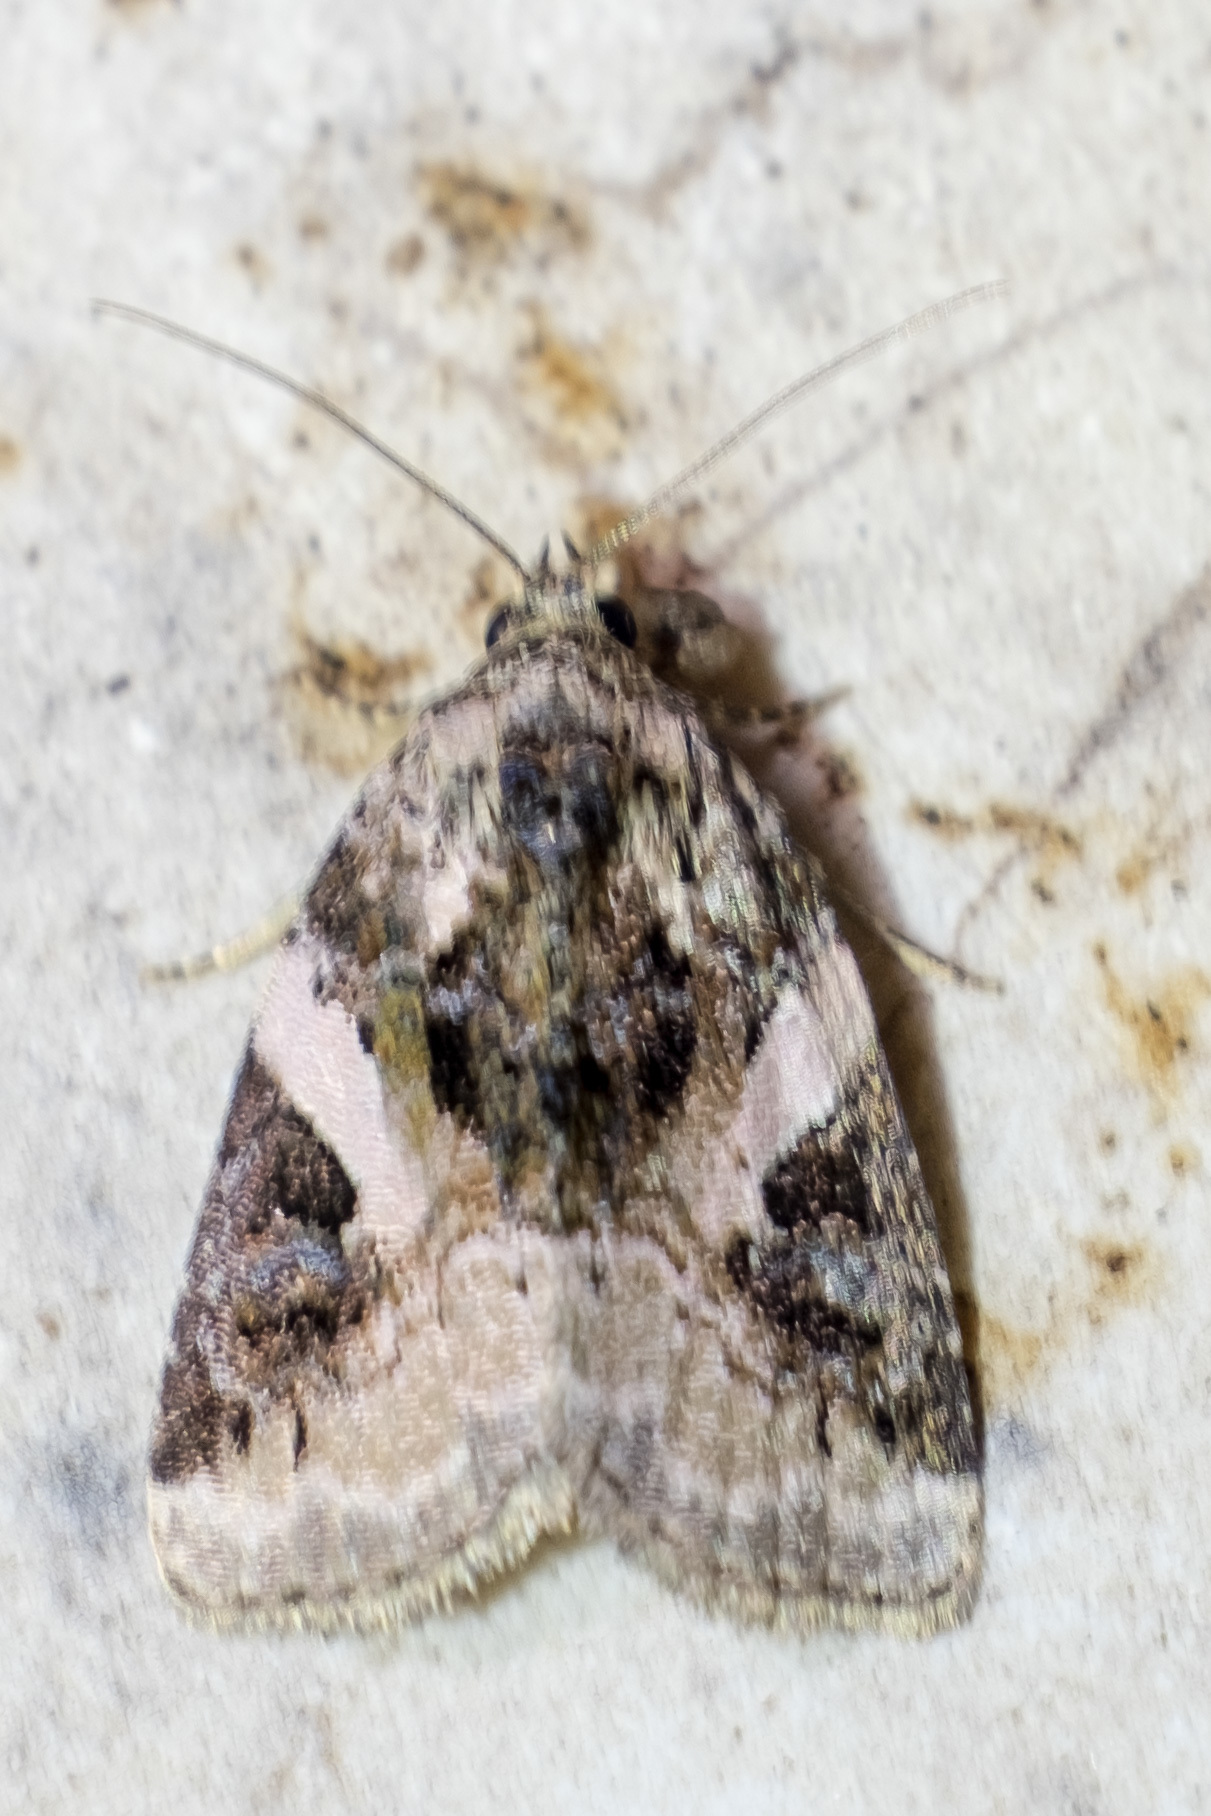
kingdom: Animalia
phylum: Arthropoda
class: Insecta
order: Lepidoptera
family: Noctuidae
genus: Pseudeustrotia
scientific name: Pseudeustrotia carneola
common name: Pink-barred lithacodia moth
